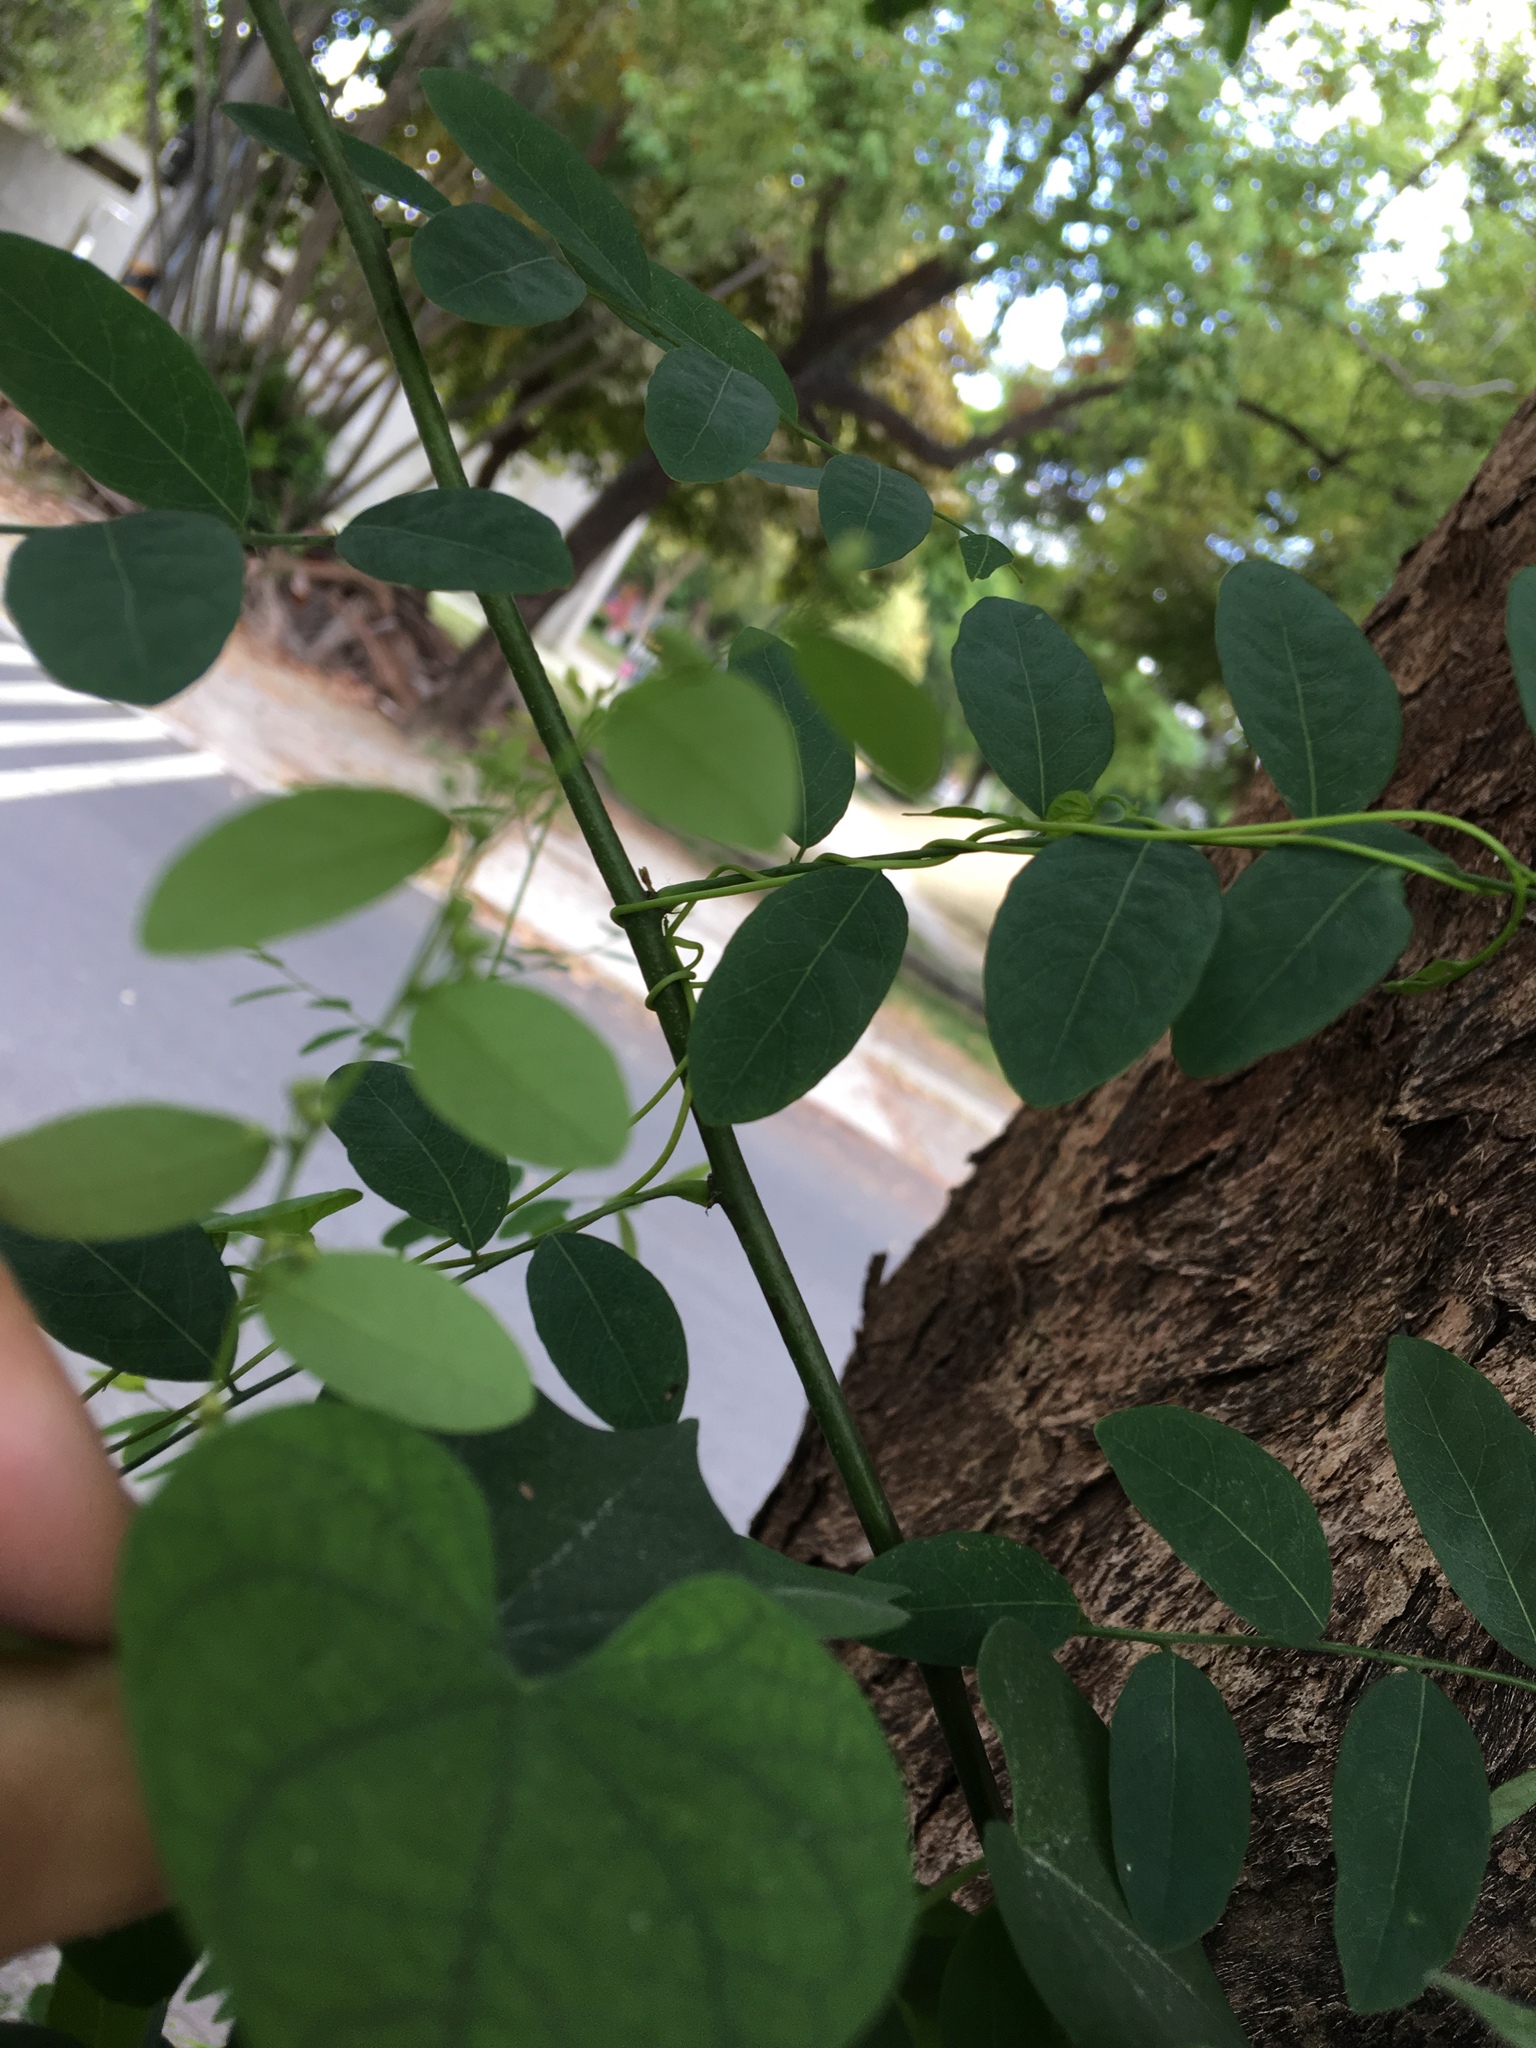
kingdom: Plantae
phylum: Tracheophyta
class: Magnoliopsida
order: Malpighiales
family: Phyllanthaceae
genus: Phyllanthus
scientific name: Phyllanthus reticulatus
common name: Potato bush
